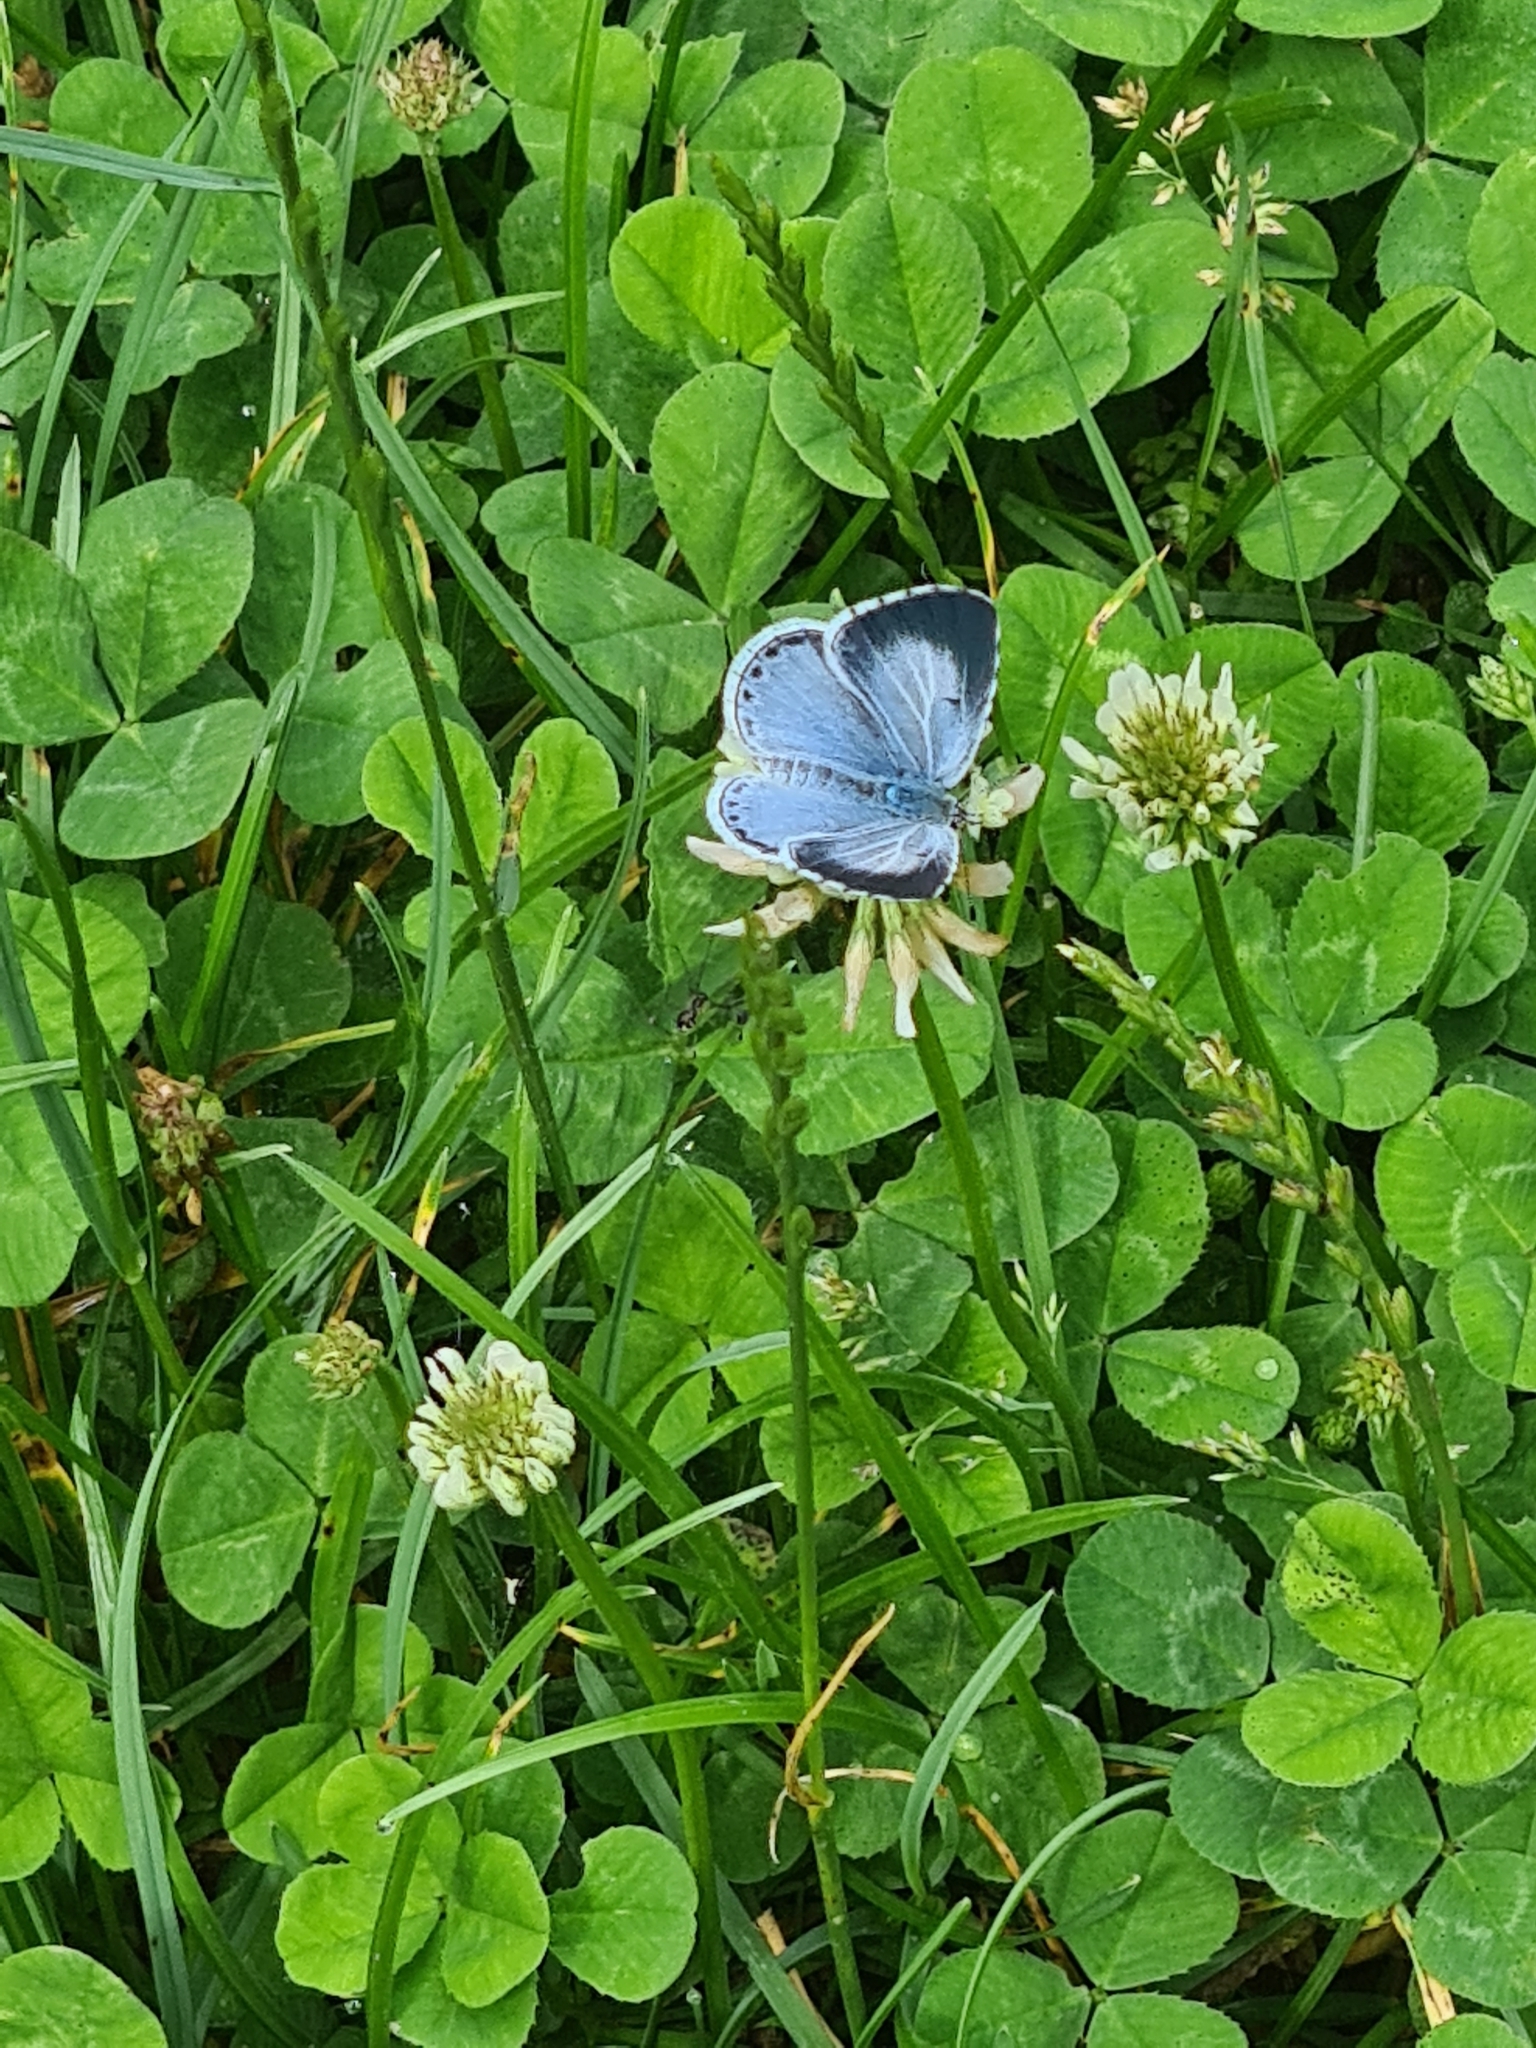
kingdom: Animalia
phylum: Arthropoda
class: Insecta
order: Lepidoptera
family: Lycaenidae
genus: Celastrina
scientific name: Celastrina argiolus
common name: Holly blue
